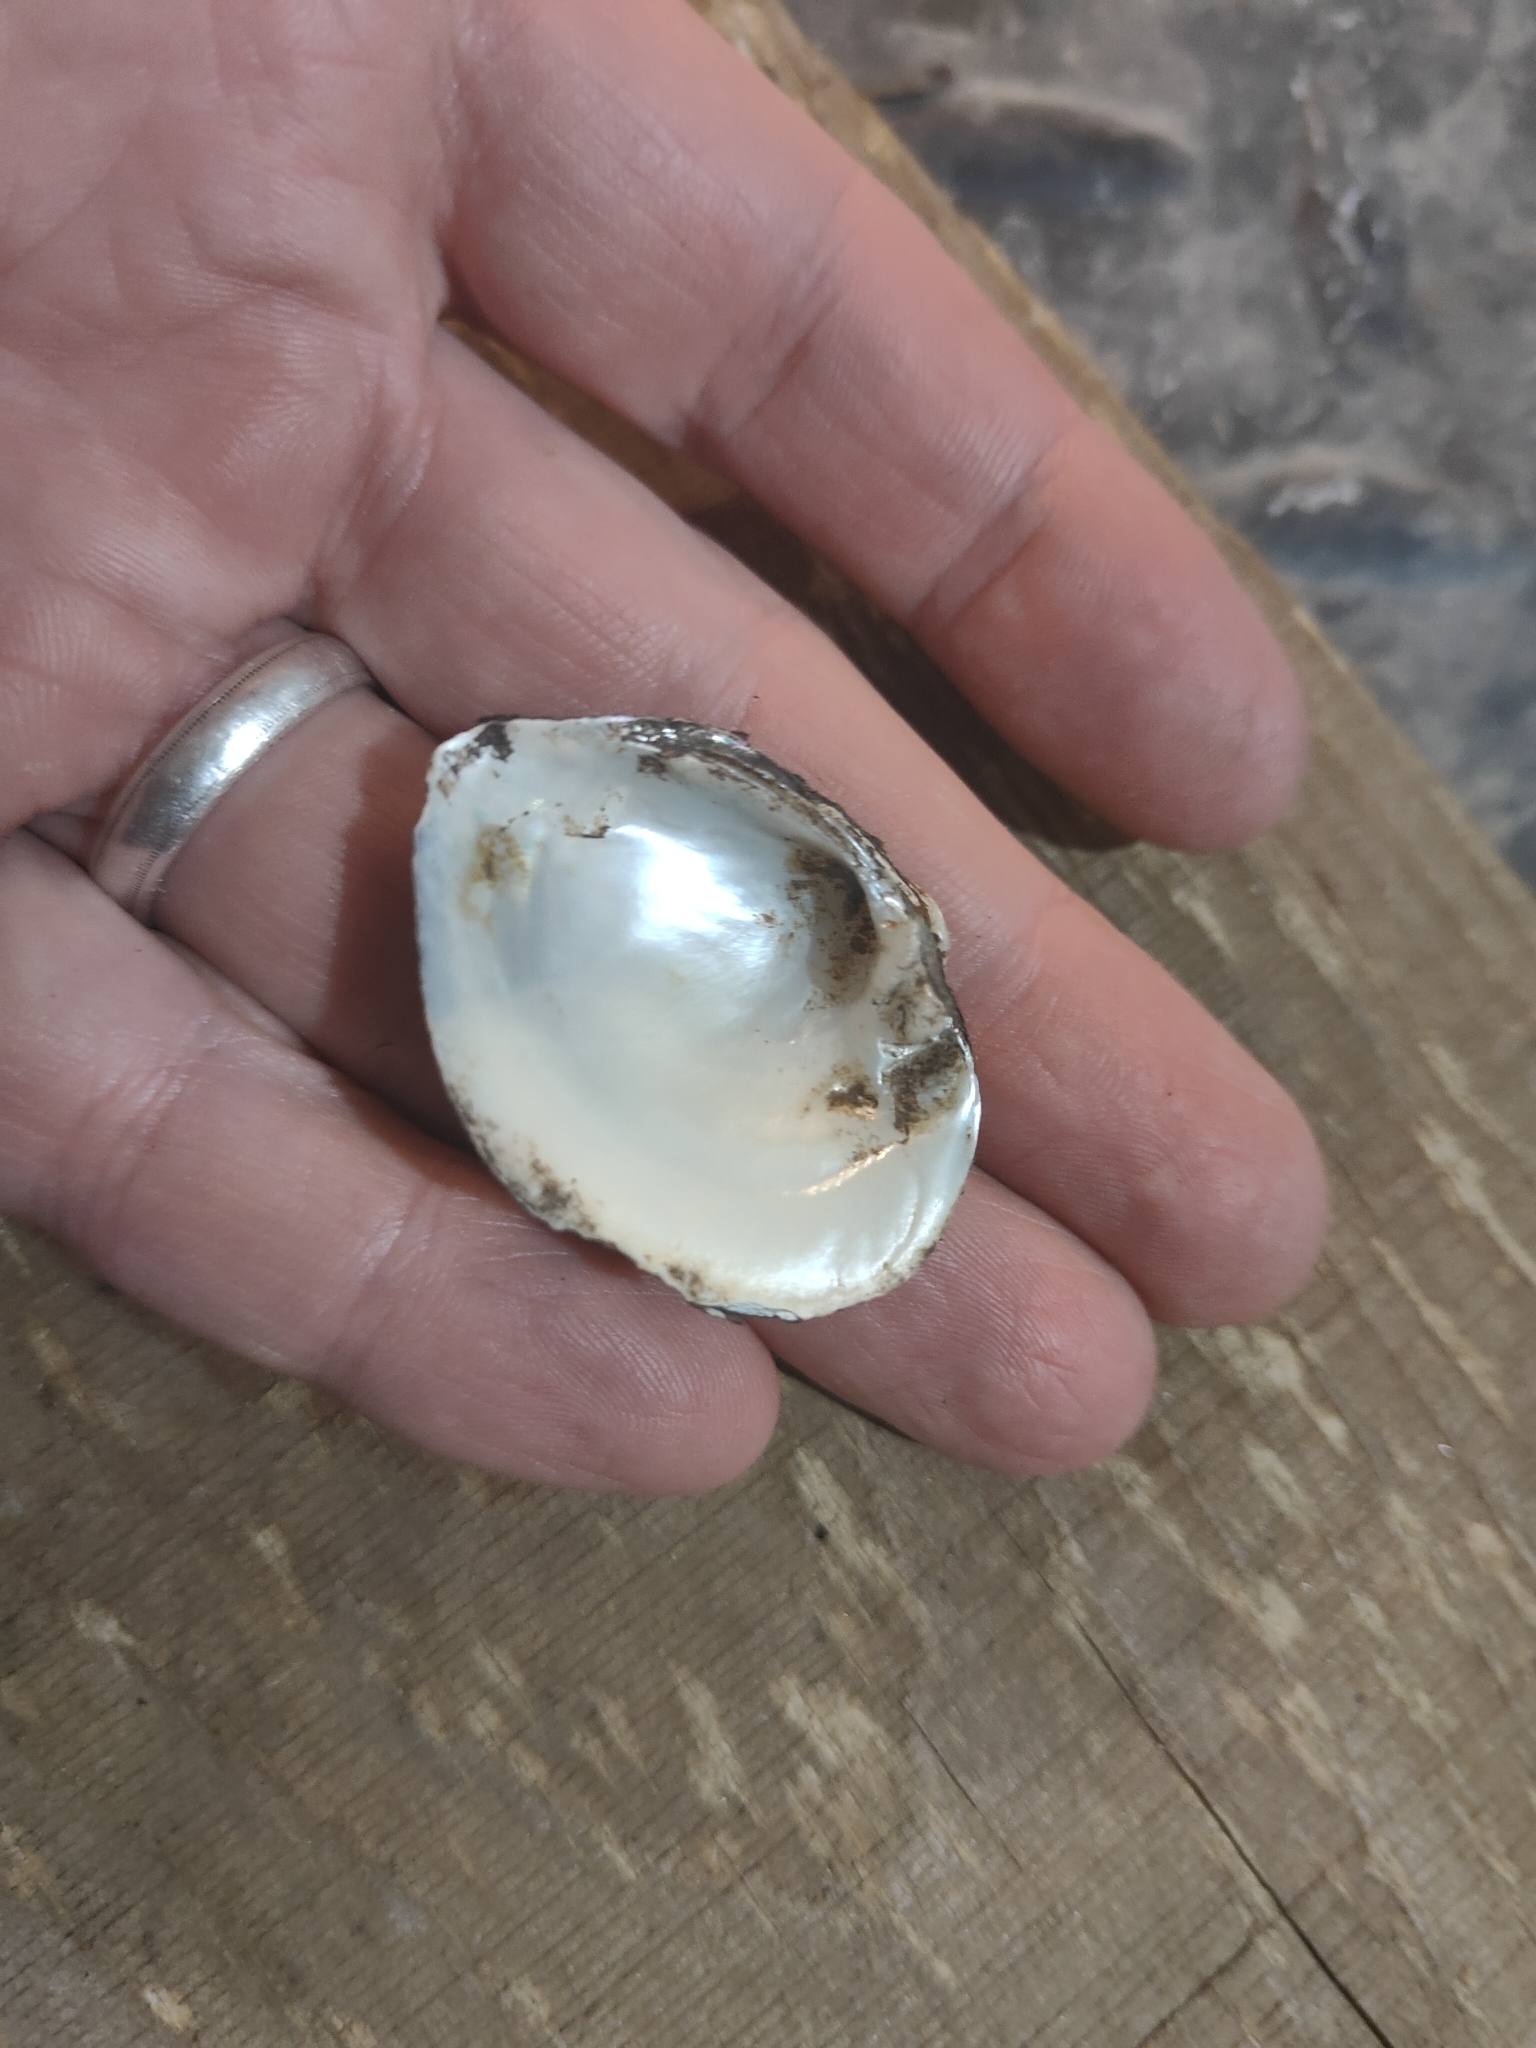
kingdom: Animalia
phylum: Mollusca
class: Bivalvia
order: Unionida
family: Unionidae
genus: Truncilla
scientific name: Truncilla truncata
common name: Deertoe
